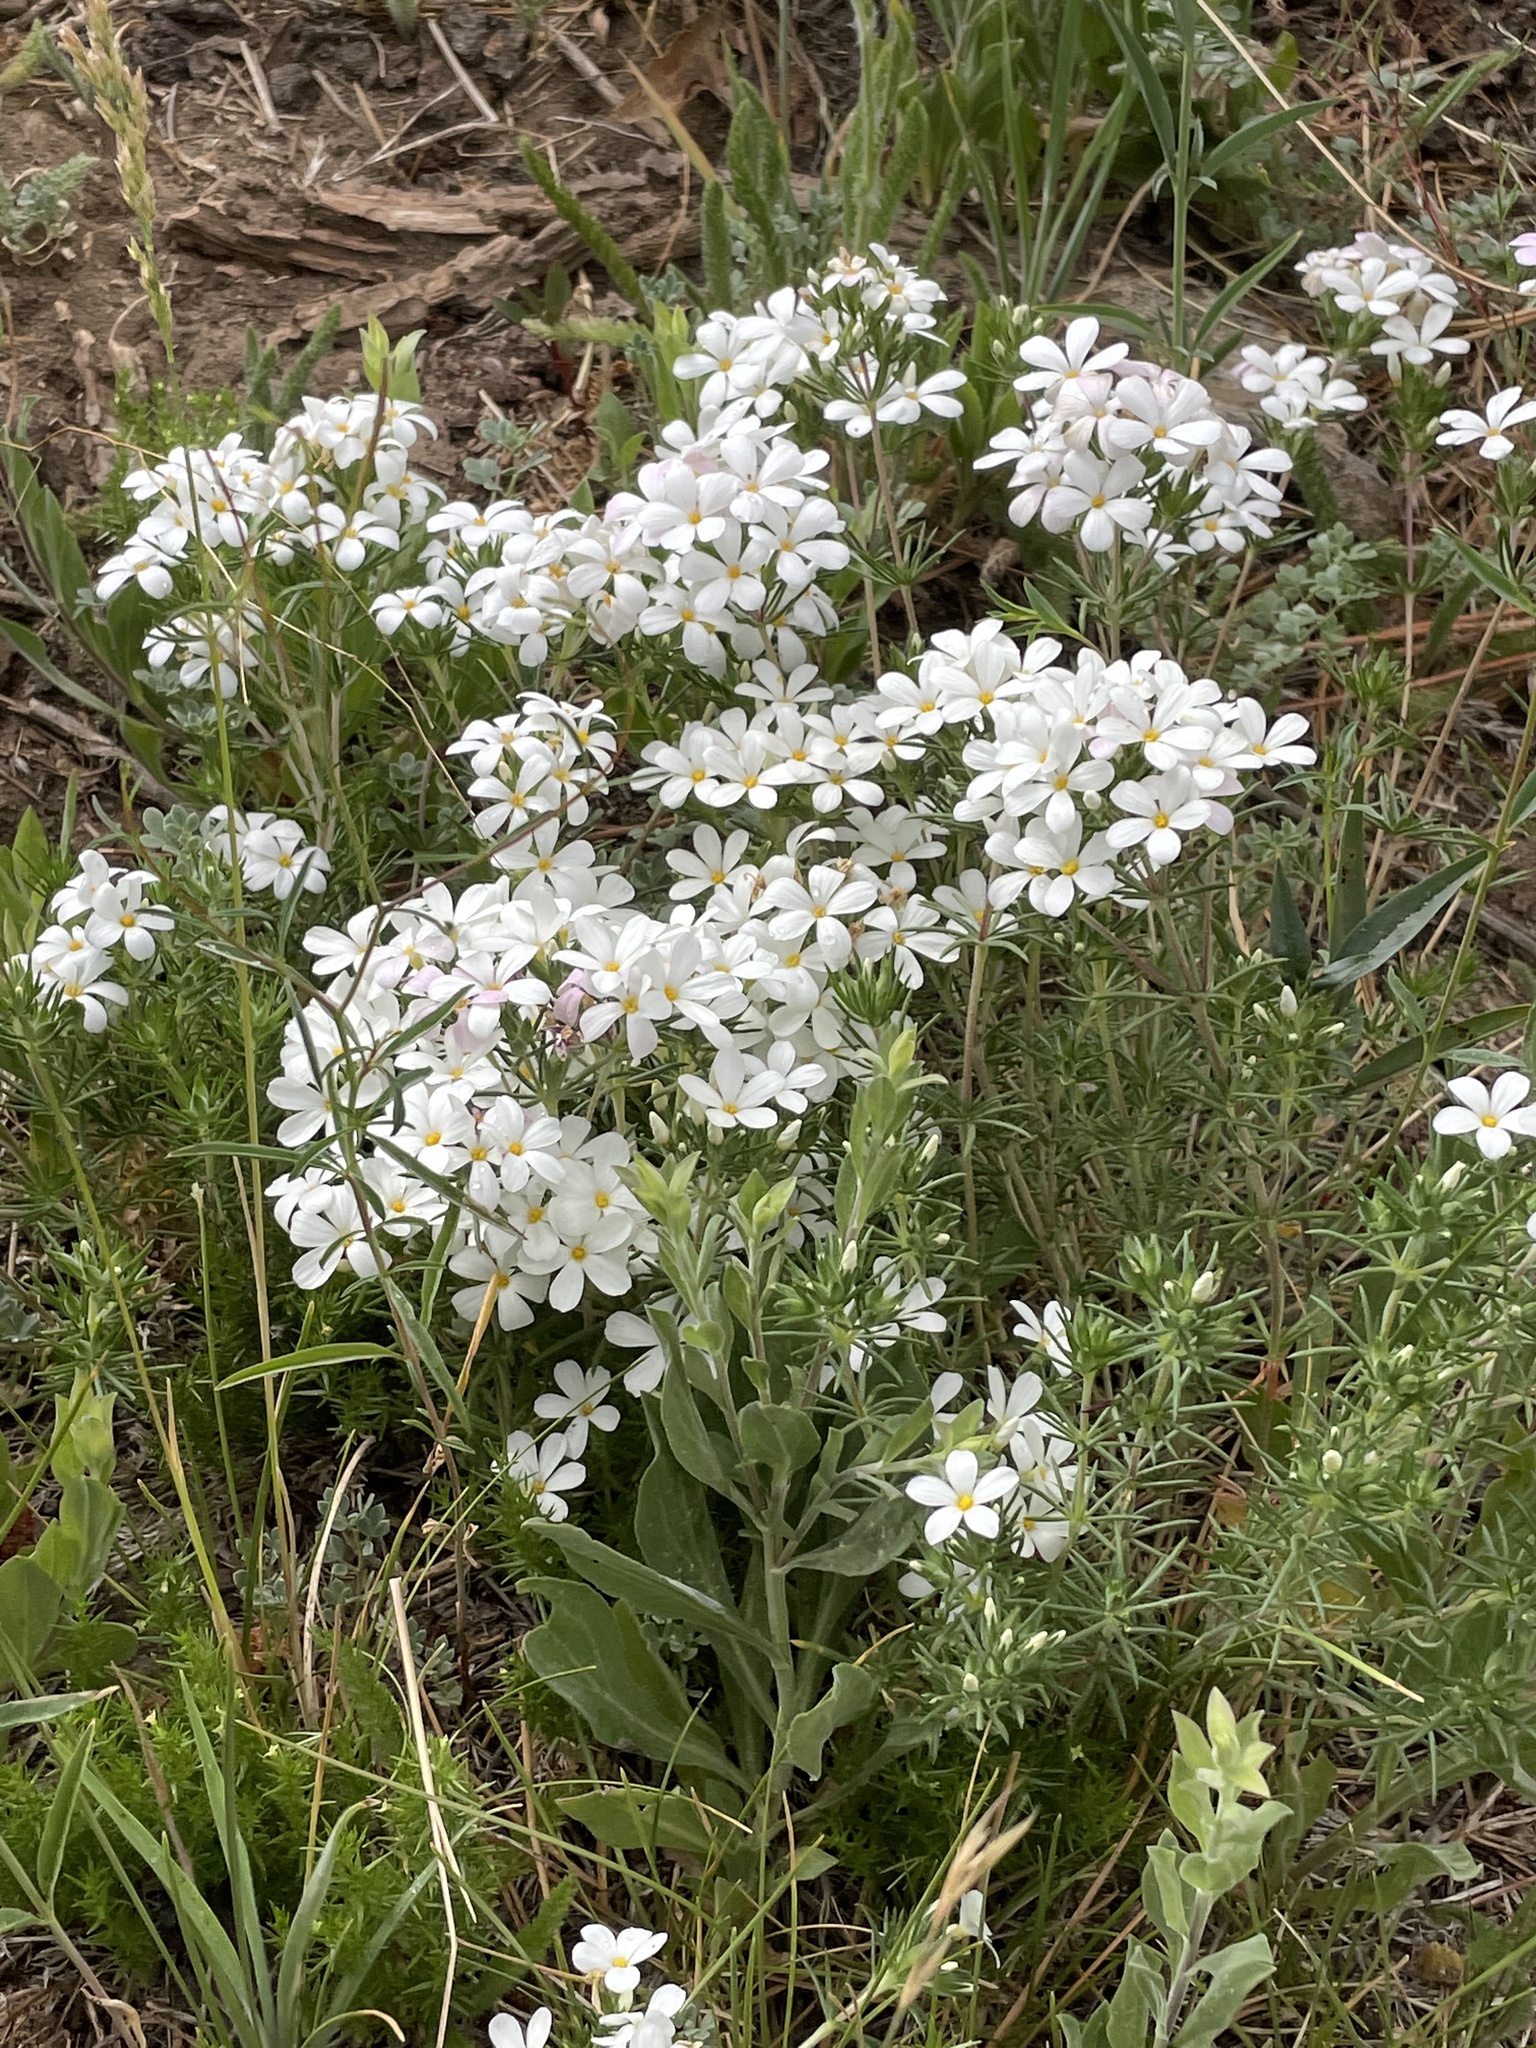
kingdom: Plantae
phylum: Tracheophyta
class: Magnoliopsida
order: Ericales
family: Polemoniaceae
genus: Leptosiphon
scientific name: Leptosiphon floribundum
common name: Many-flower linanthus
